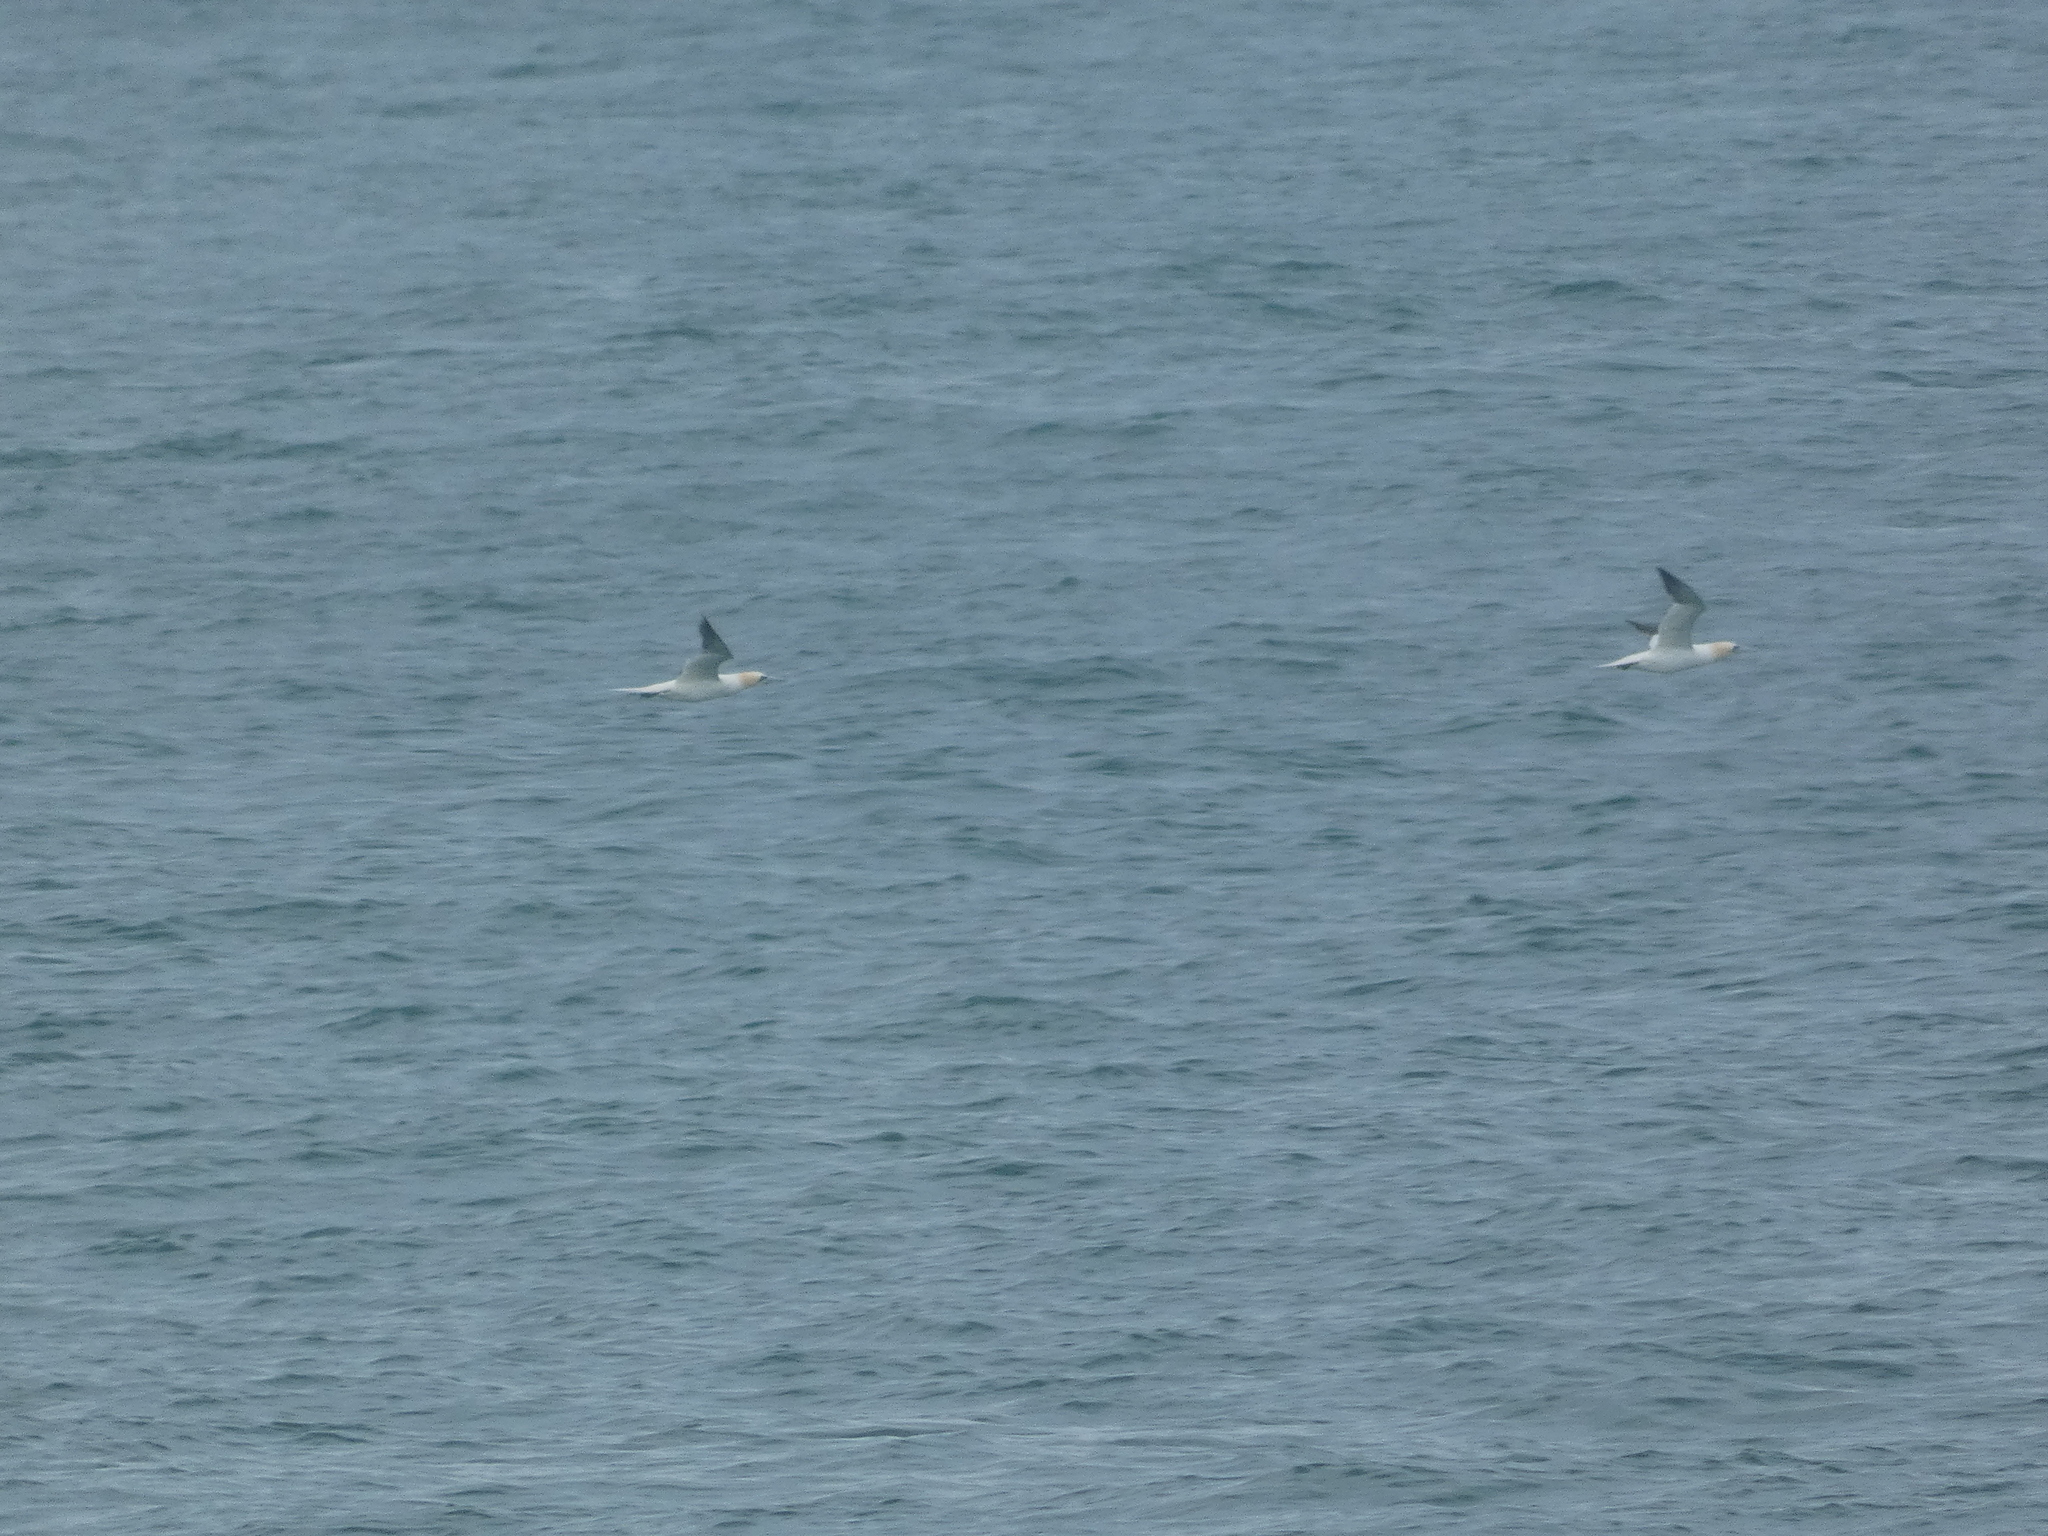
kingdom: Animalia
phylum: Chordata
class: Aves
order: Suliformes
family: Sulidae
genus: Morus
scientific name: Morus bassanus
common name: Northern gannet
